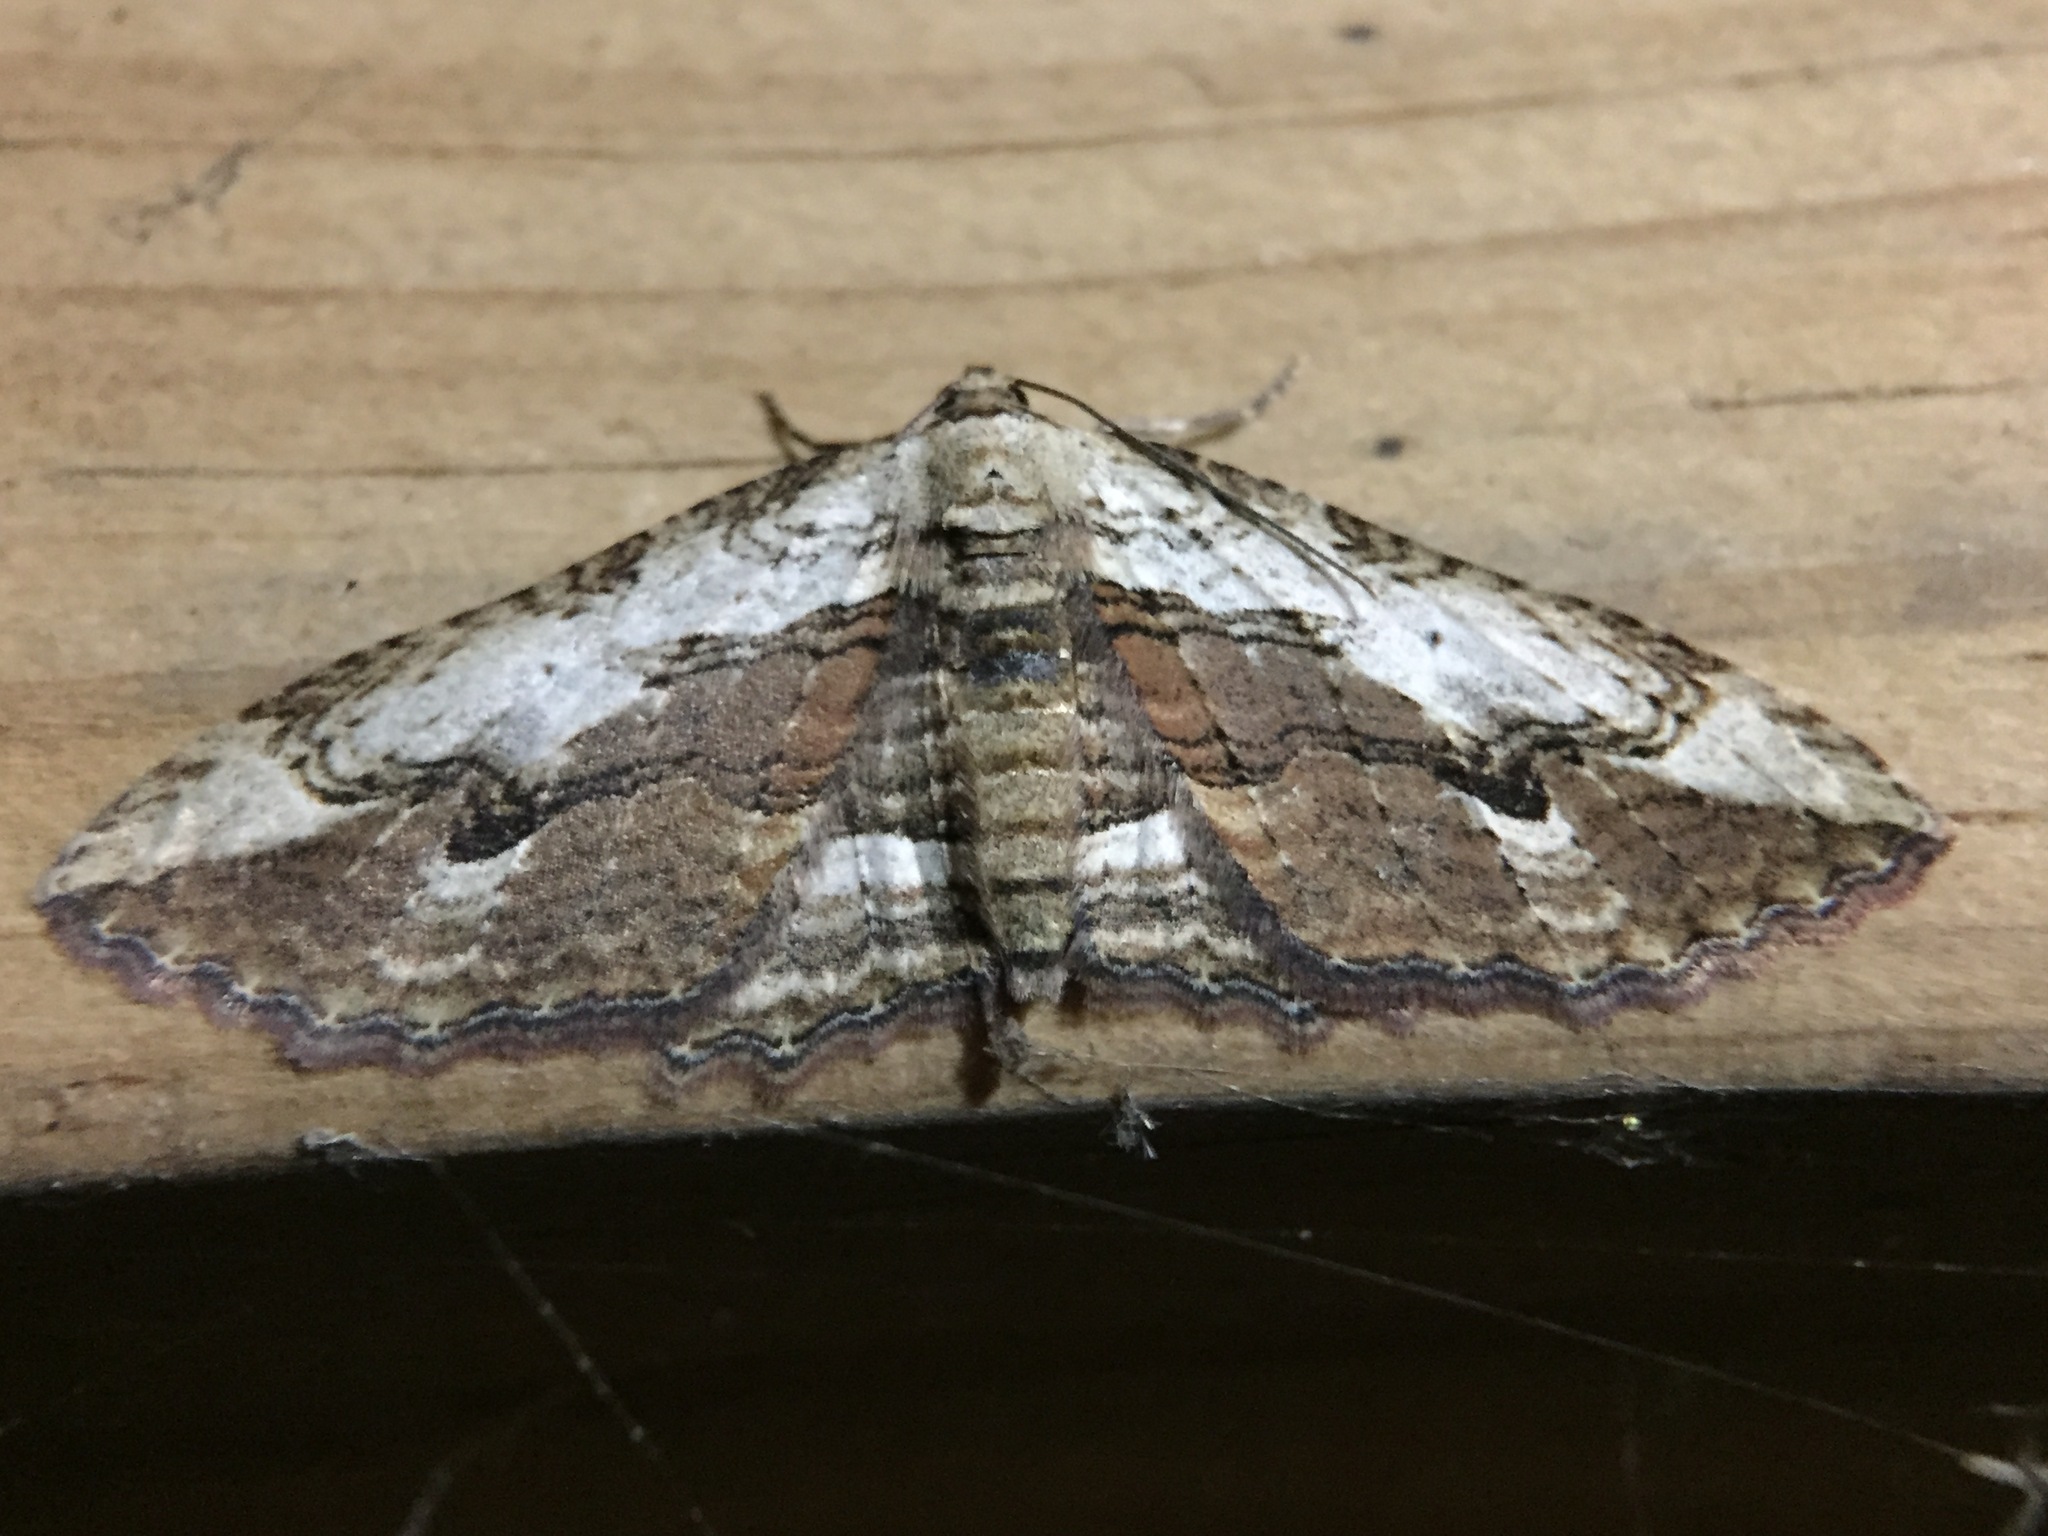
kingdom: Animalia
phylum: Arthropoda
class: Insecta
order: Lepidoptera
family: Geometridae
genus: Austrocidaria
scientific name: Austrocidaria bipartita
